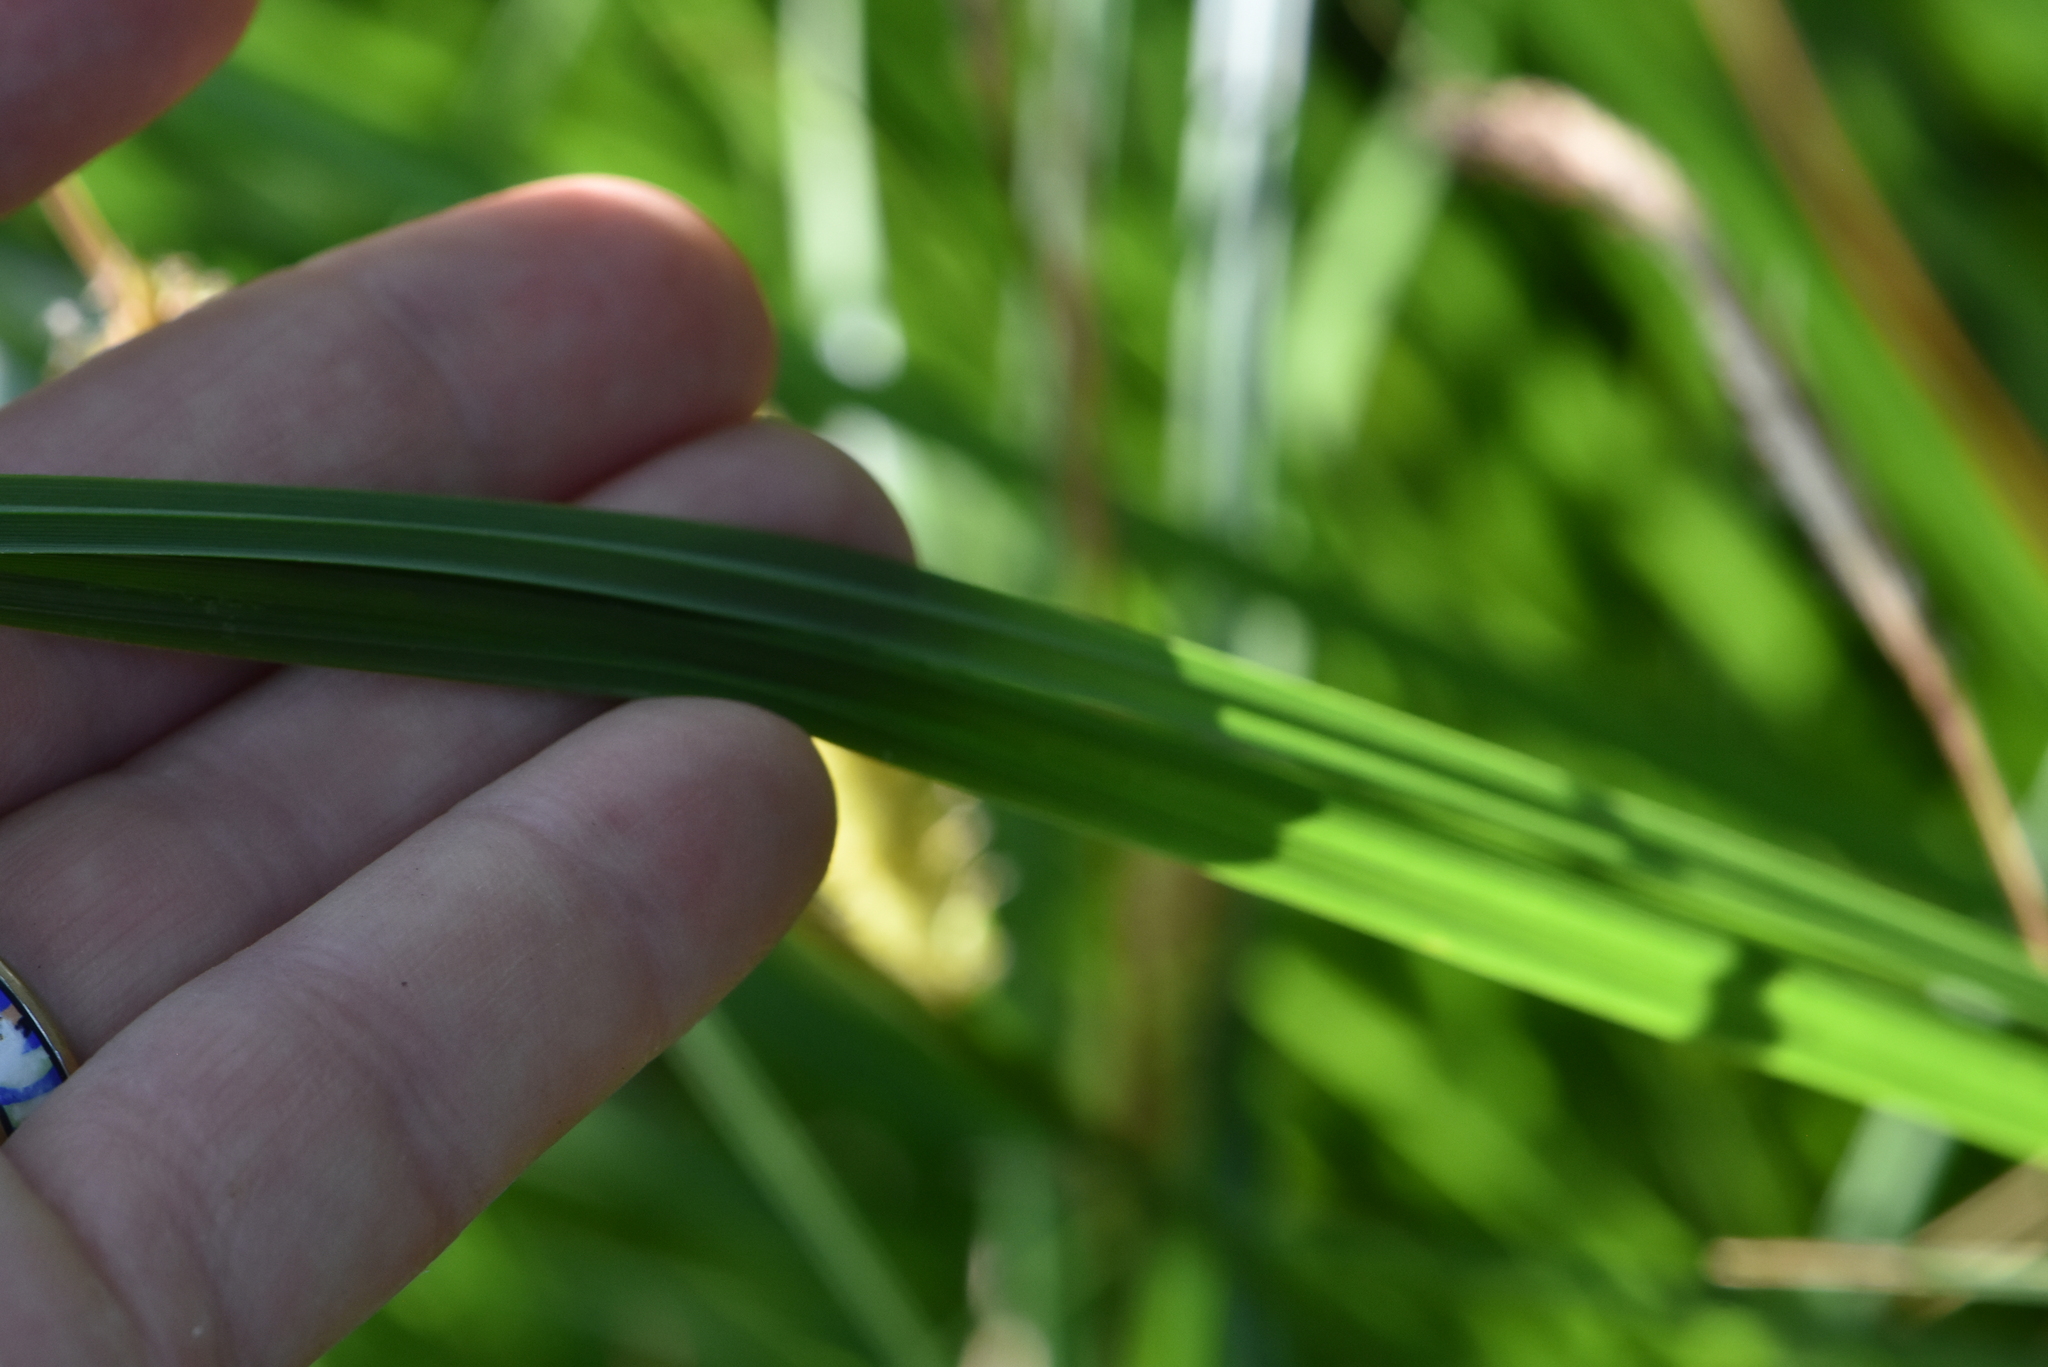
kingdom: Plantae
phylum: Tracheophyta
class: Liliopsida
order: Poales
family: Cyperaceae
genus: Carex
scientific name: Carex vesicaria
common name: Bladder-sedge
